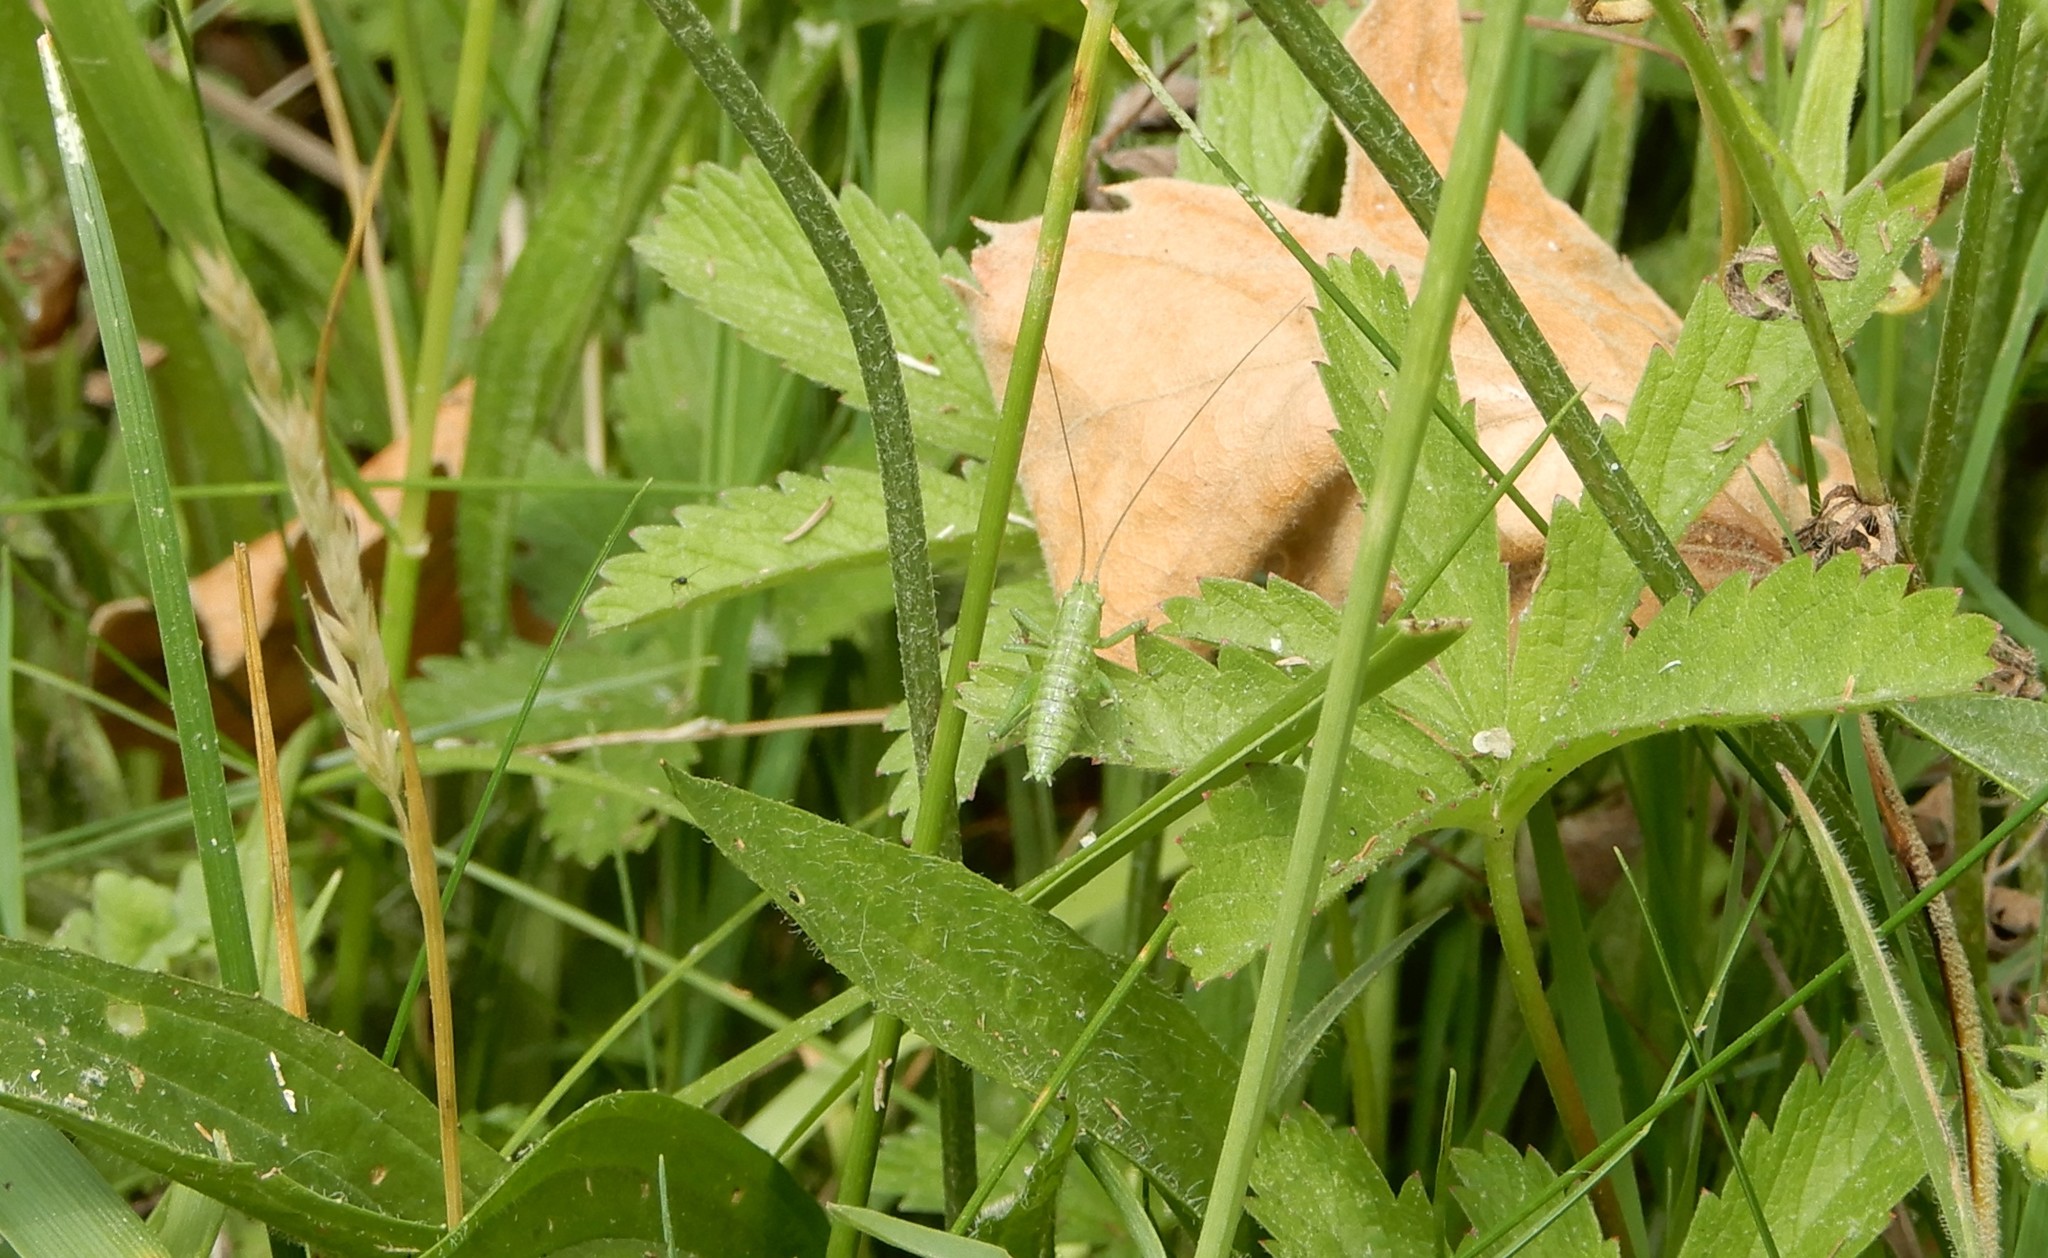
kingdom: Animalia
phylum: Arthropoda
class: Insecta
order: Orthoptera
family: Tettigoniidae
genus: Tettigonia
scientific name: Tettigonia viridissima
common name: Great green bush-cricket
